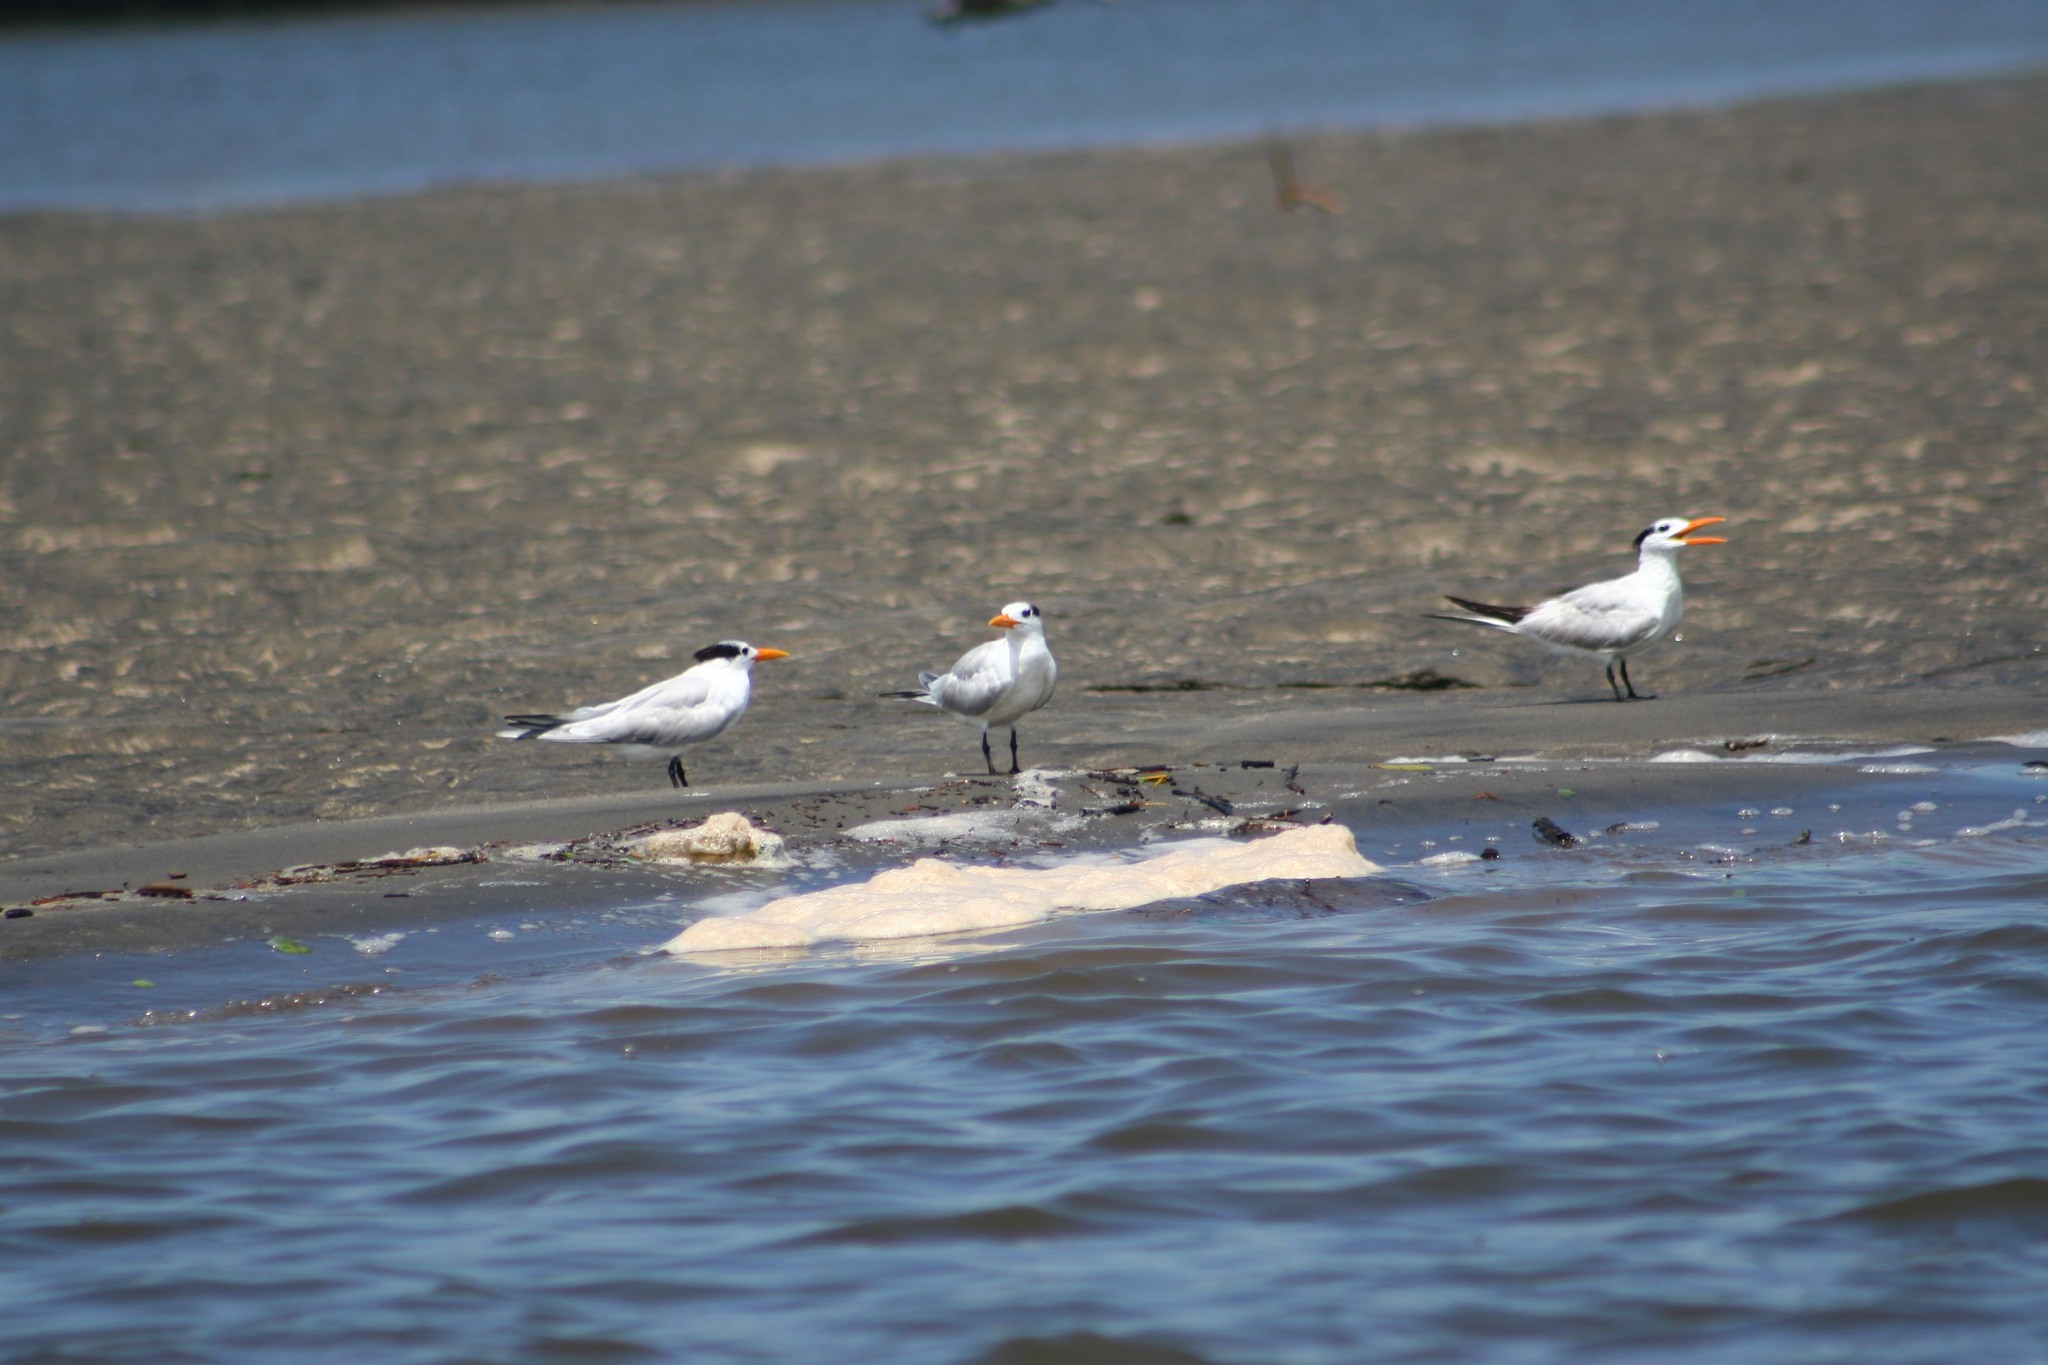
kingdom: Animalia
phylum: Chordata
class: Aves
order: Charadriiformes
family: Laridae
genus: Thalasseus
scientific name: Thalasseus maximus
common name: Royal tern
